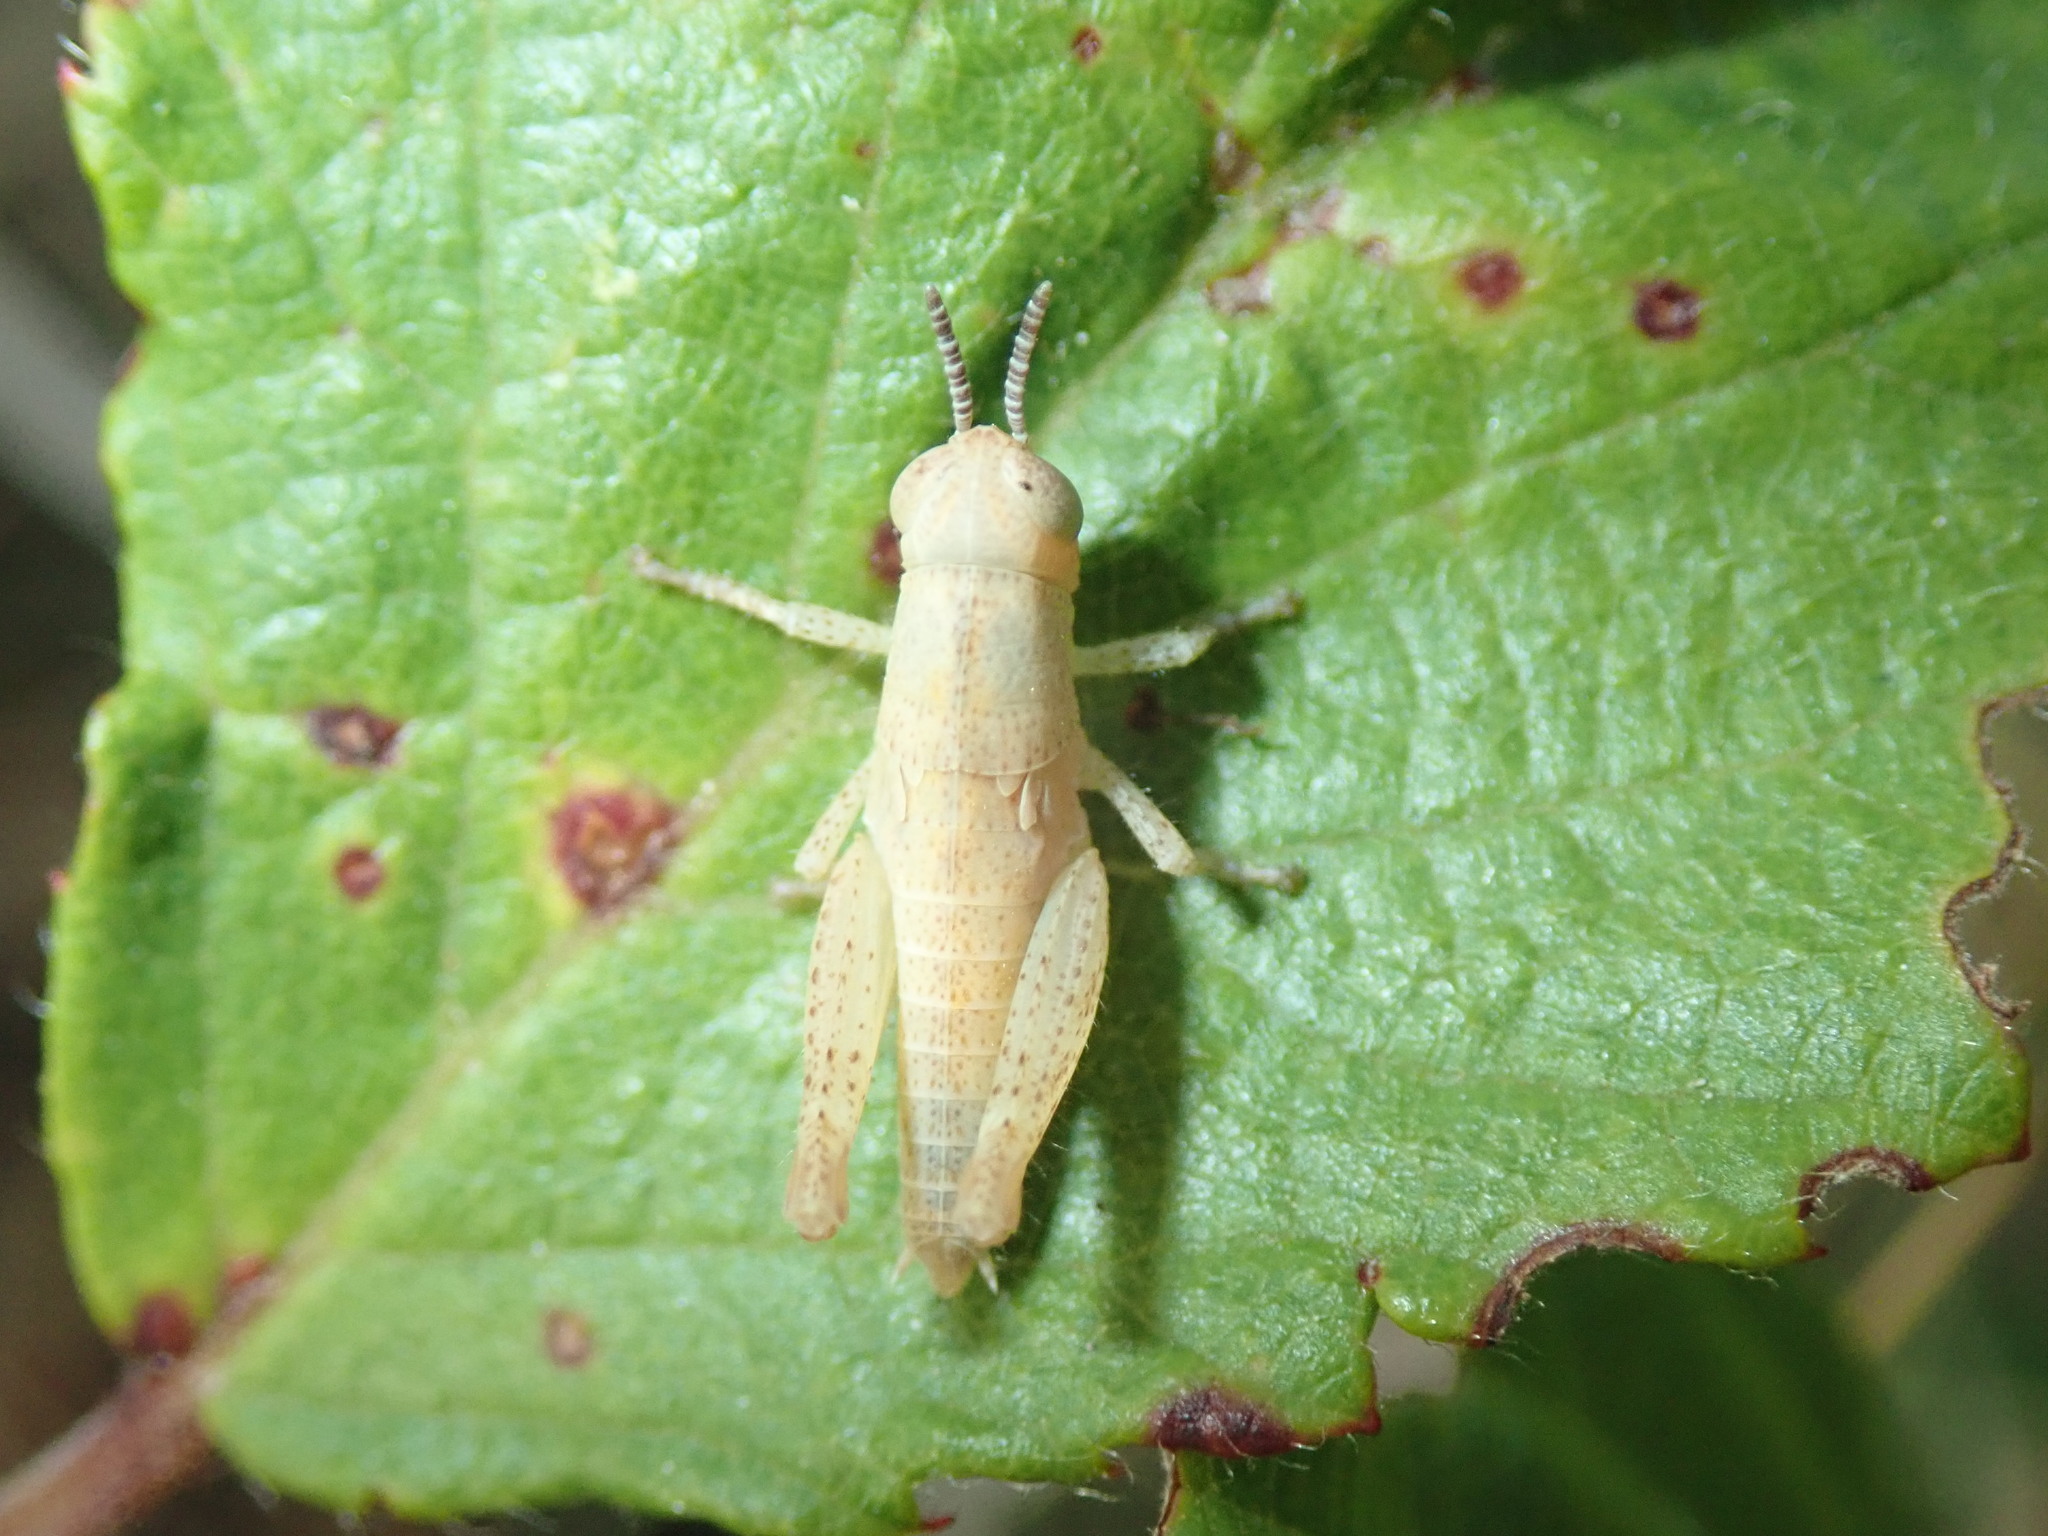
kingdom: Animalia
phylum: Arthropoda
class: Insecta
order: Orthoptera
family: Acrididae
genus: Pezotettix
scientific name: Pezotettix giornae
